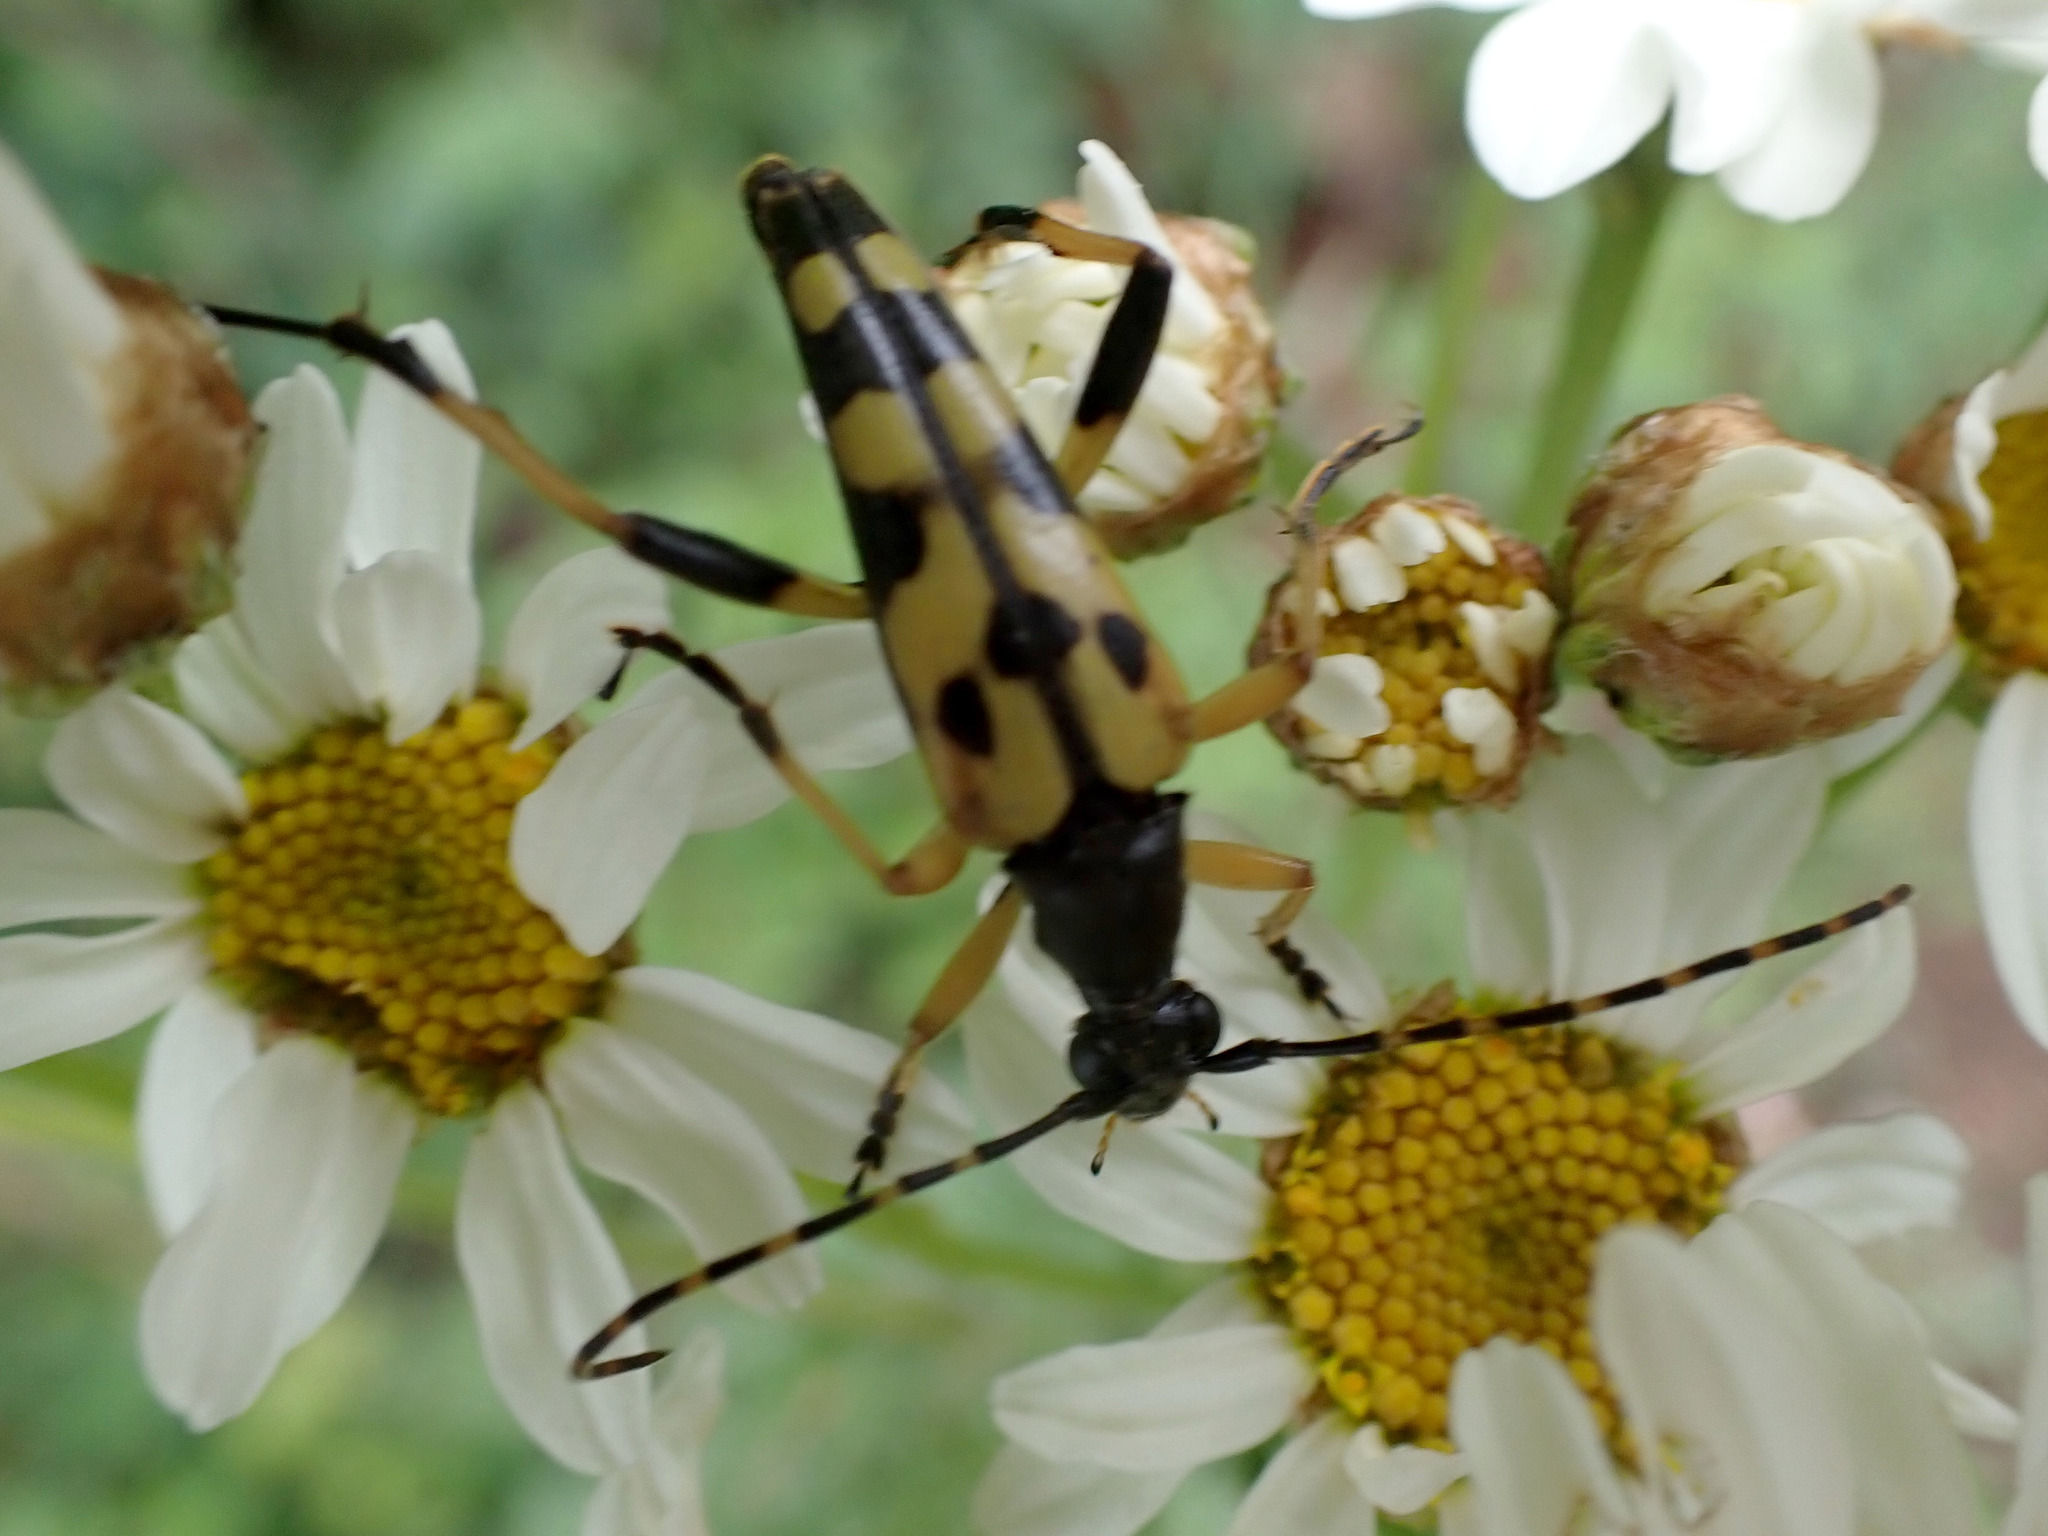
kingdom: Animalia
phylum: Arthropoda
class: Insecta
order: Coleoptera
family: Cerambycidae
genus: Rutpela
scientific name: Rutpela maculata
